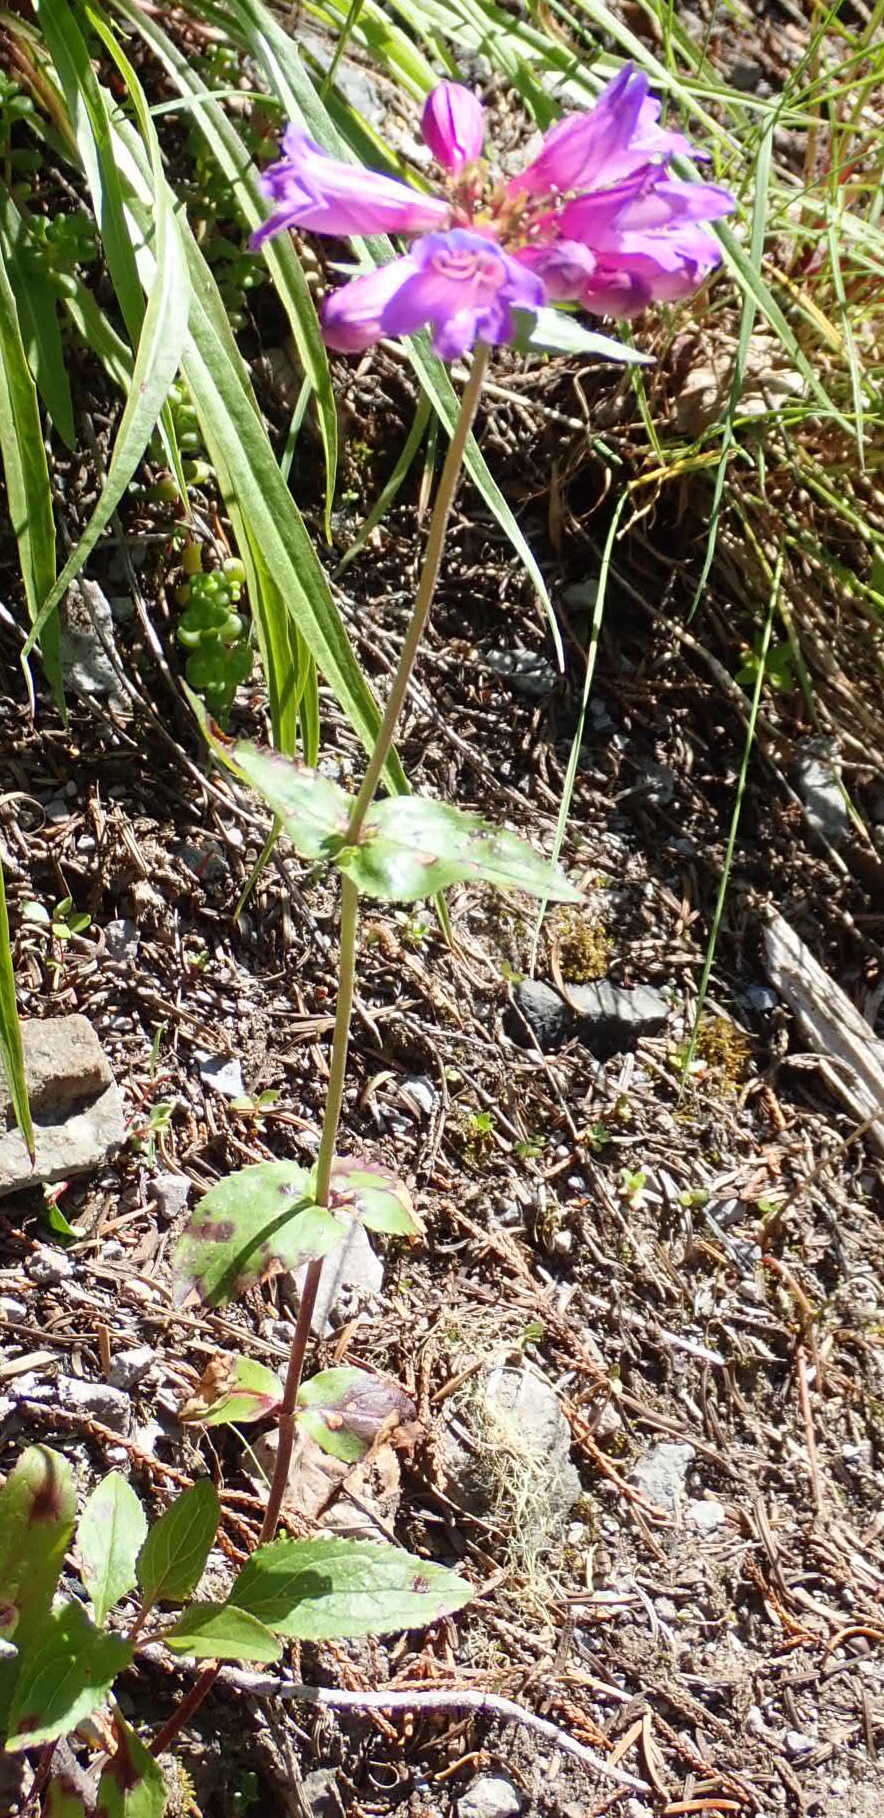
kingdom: Plantae
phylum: Tracheophyta
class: Magnoliopsida
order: Lamiales
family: Plantaginaceae
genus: Penstemon
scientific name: Penstemon serrulatus
